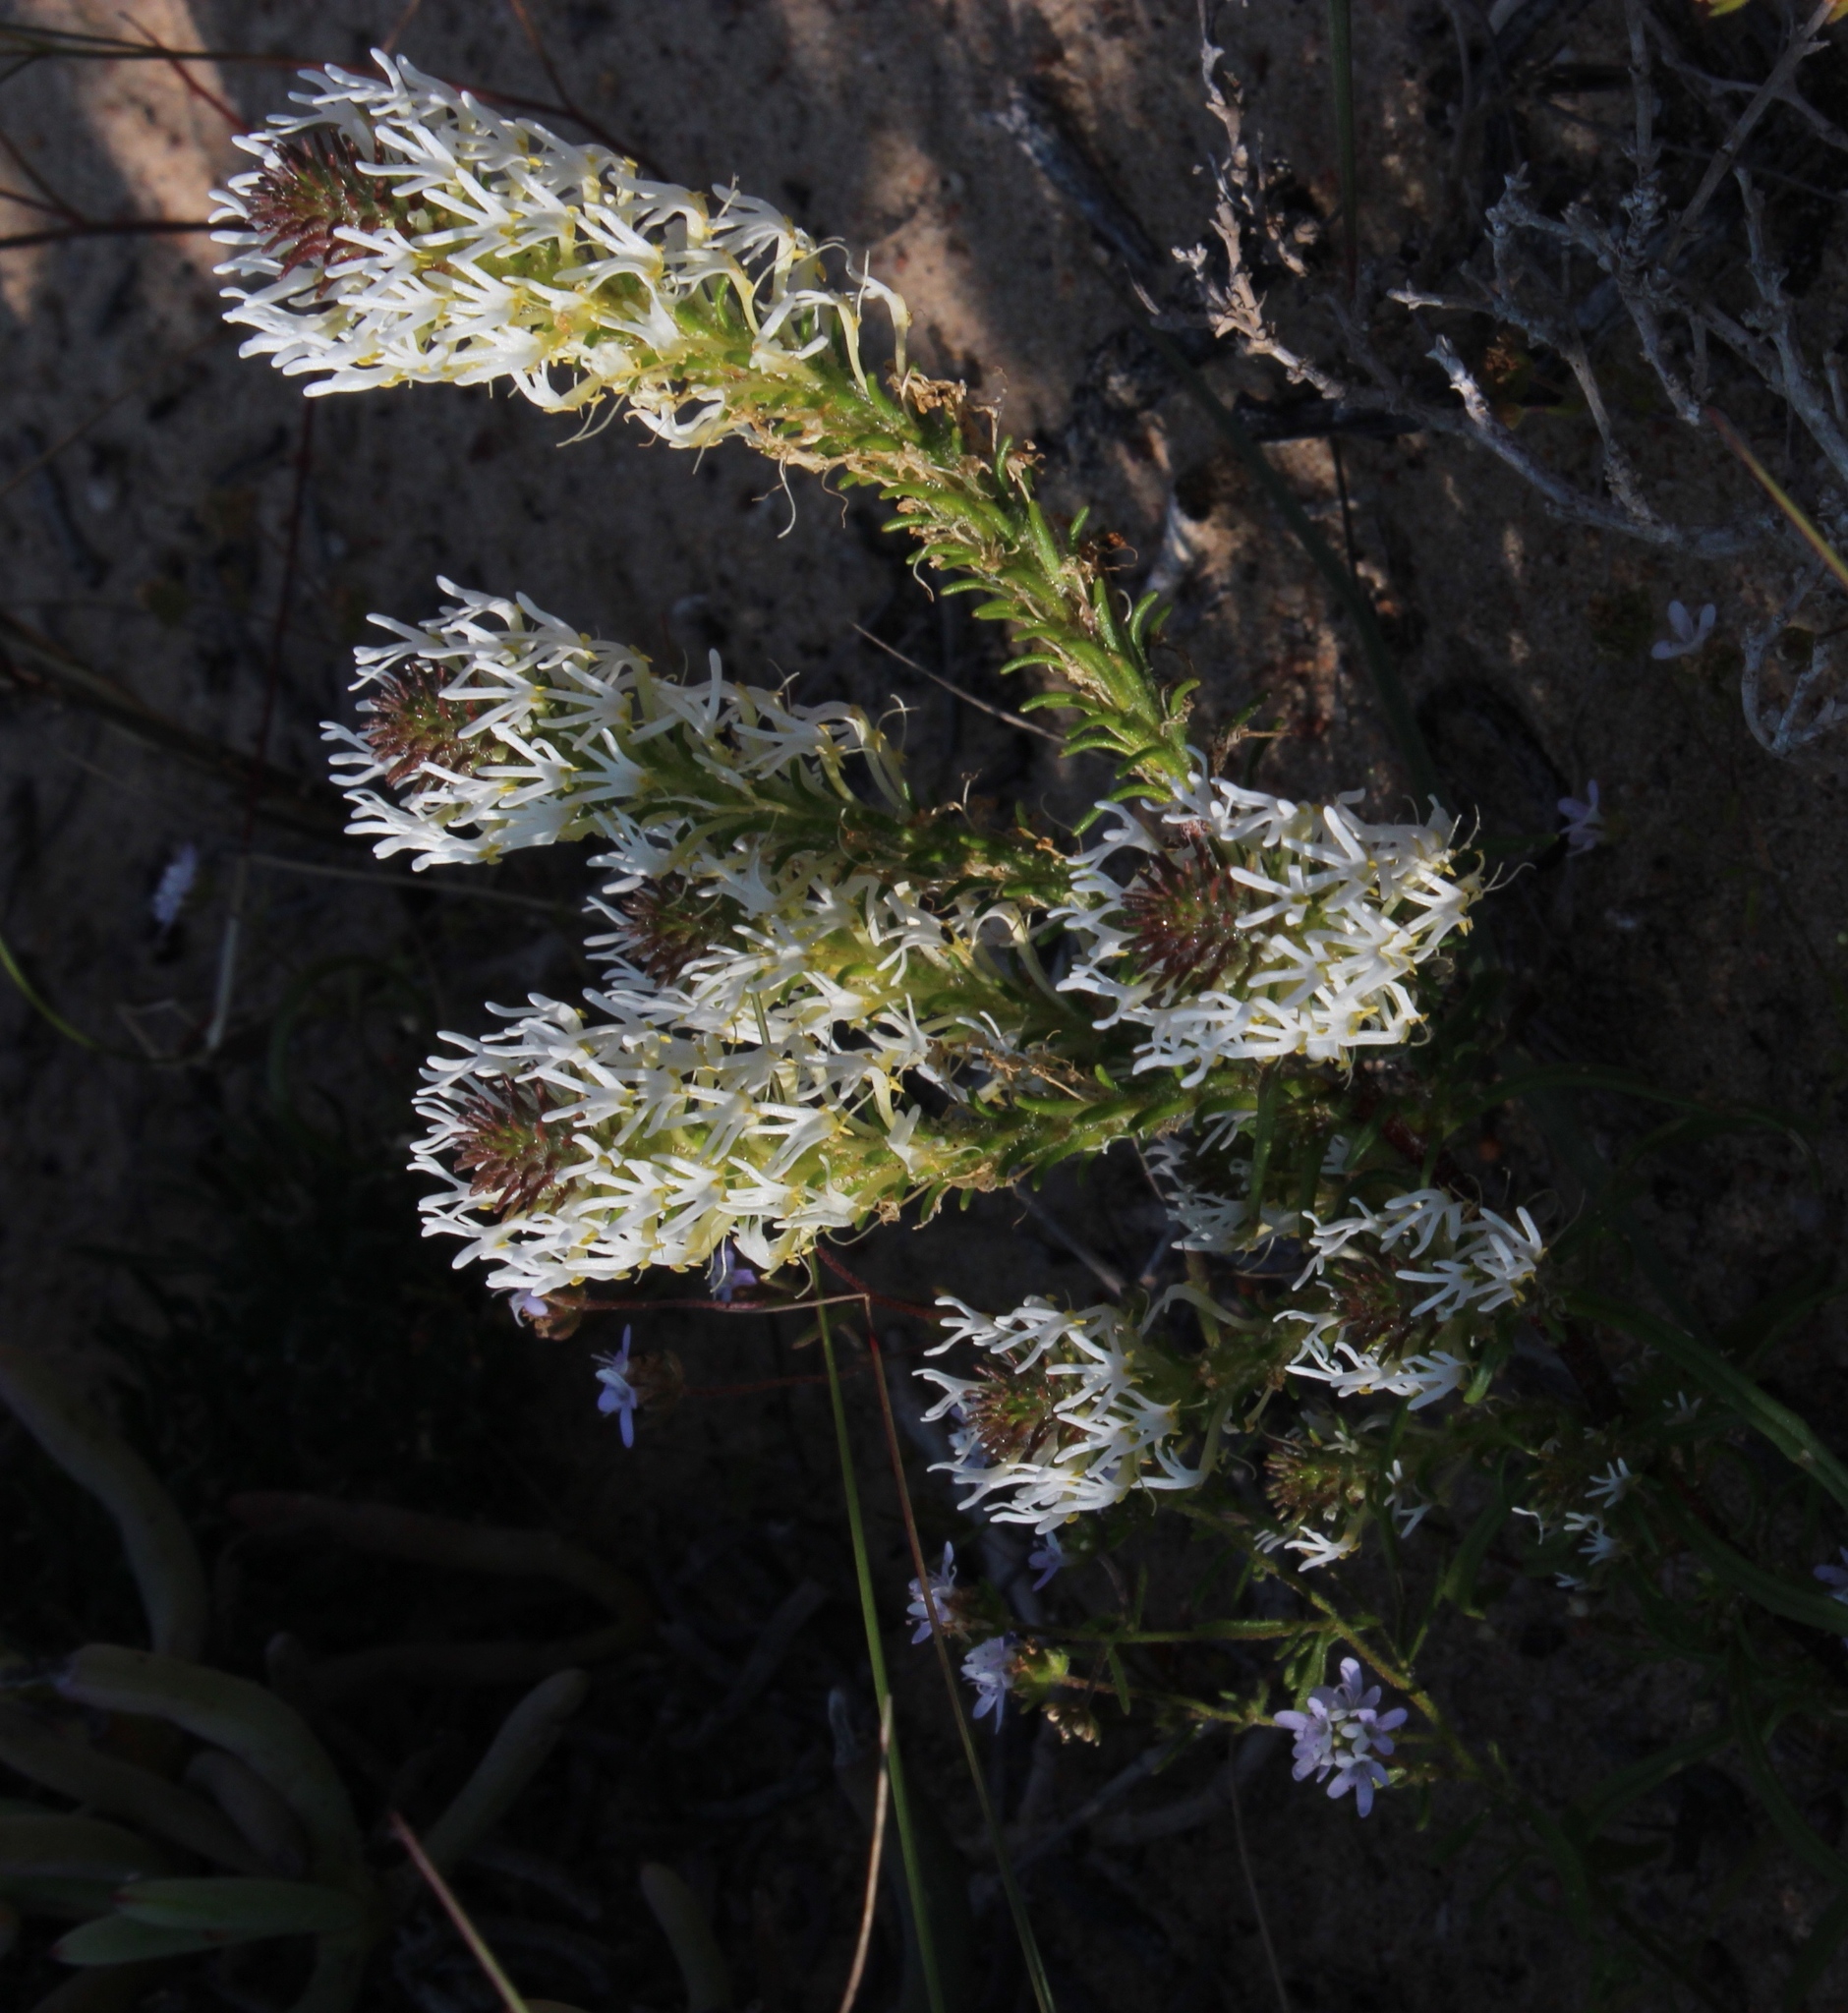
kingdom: Plantae
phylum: Tracheophyta
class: Magnoliopsida
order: Lamiales
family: Scrophulariaceae
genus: Dischisma
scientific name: Dischisma ciliatum
